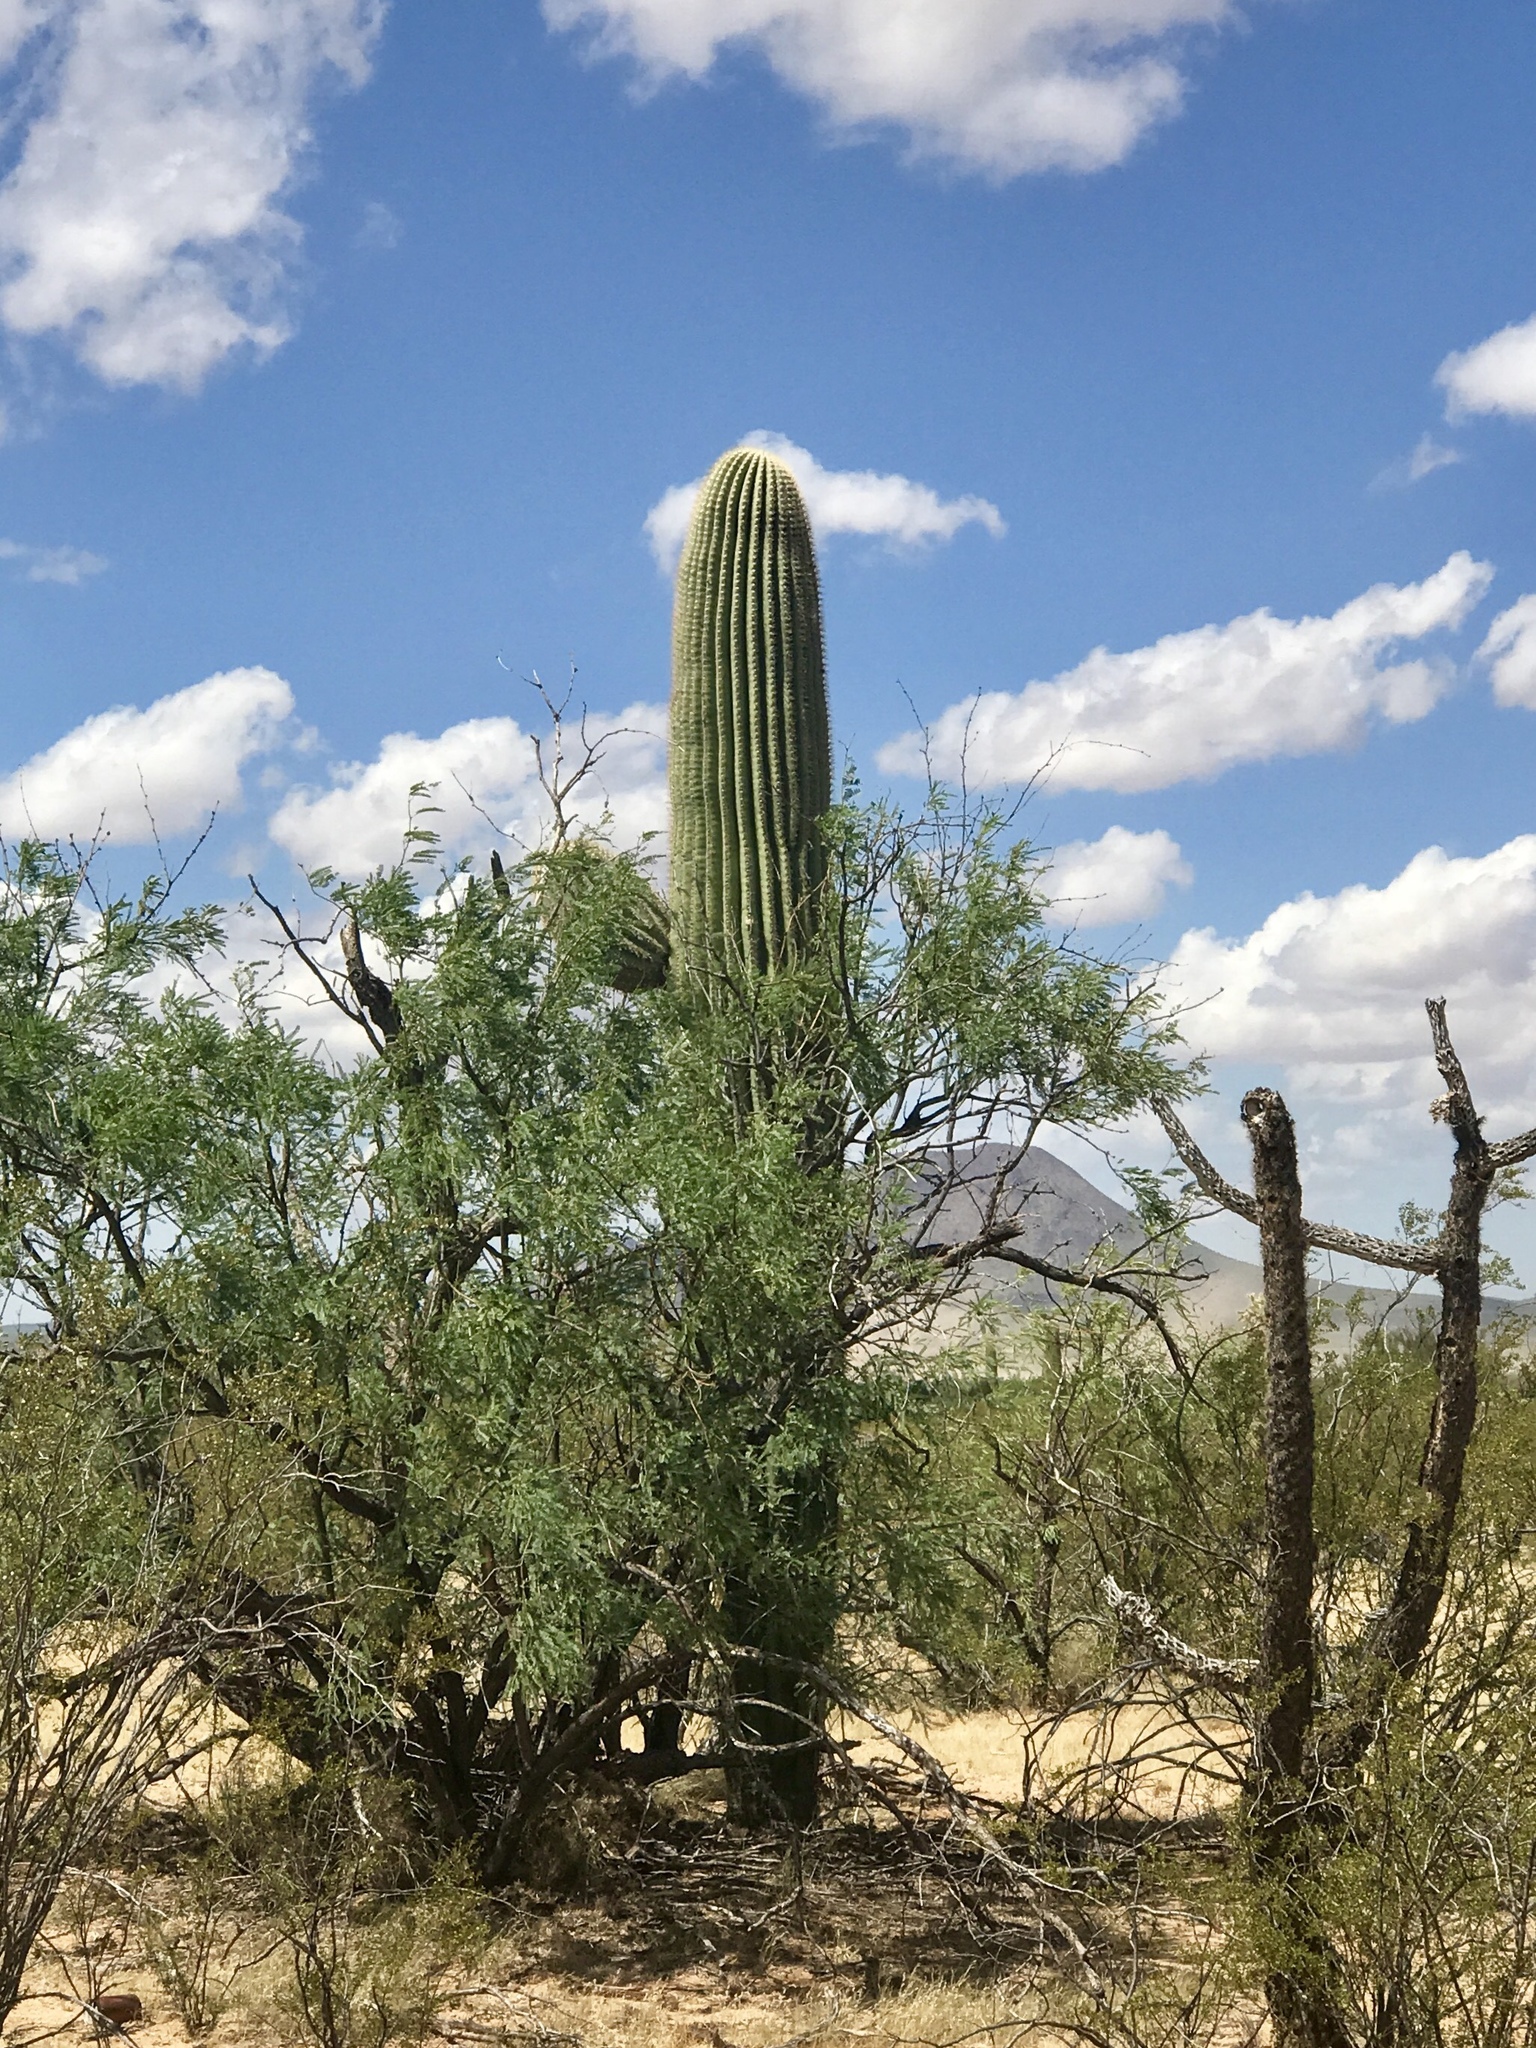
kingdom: Plantae
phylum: Tracheophyta
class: Magnoliopsida
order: Caryophyllales
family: Cactaceae
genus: Carnegiea
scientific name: Carnegiea gigantea
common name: Saguaro
